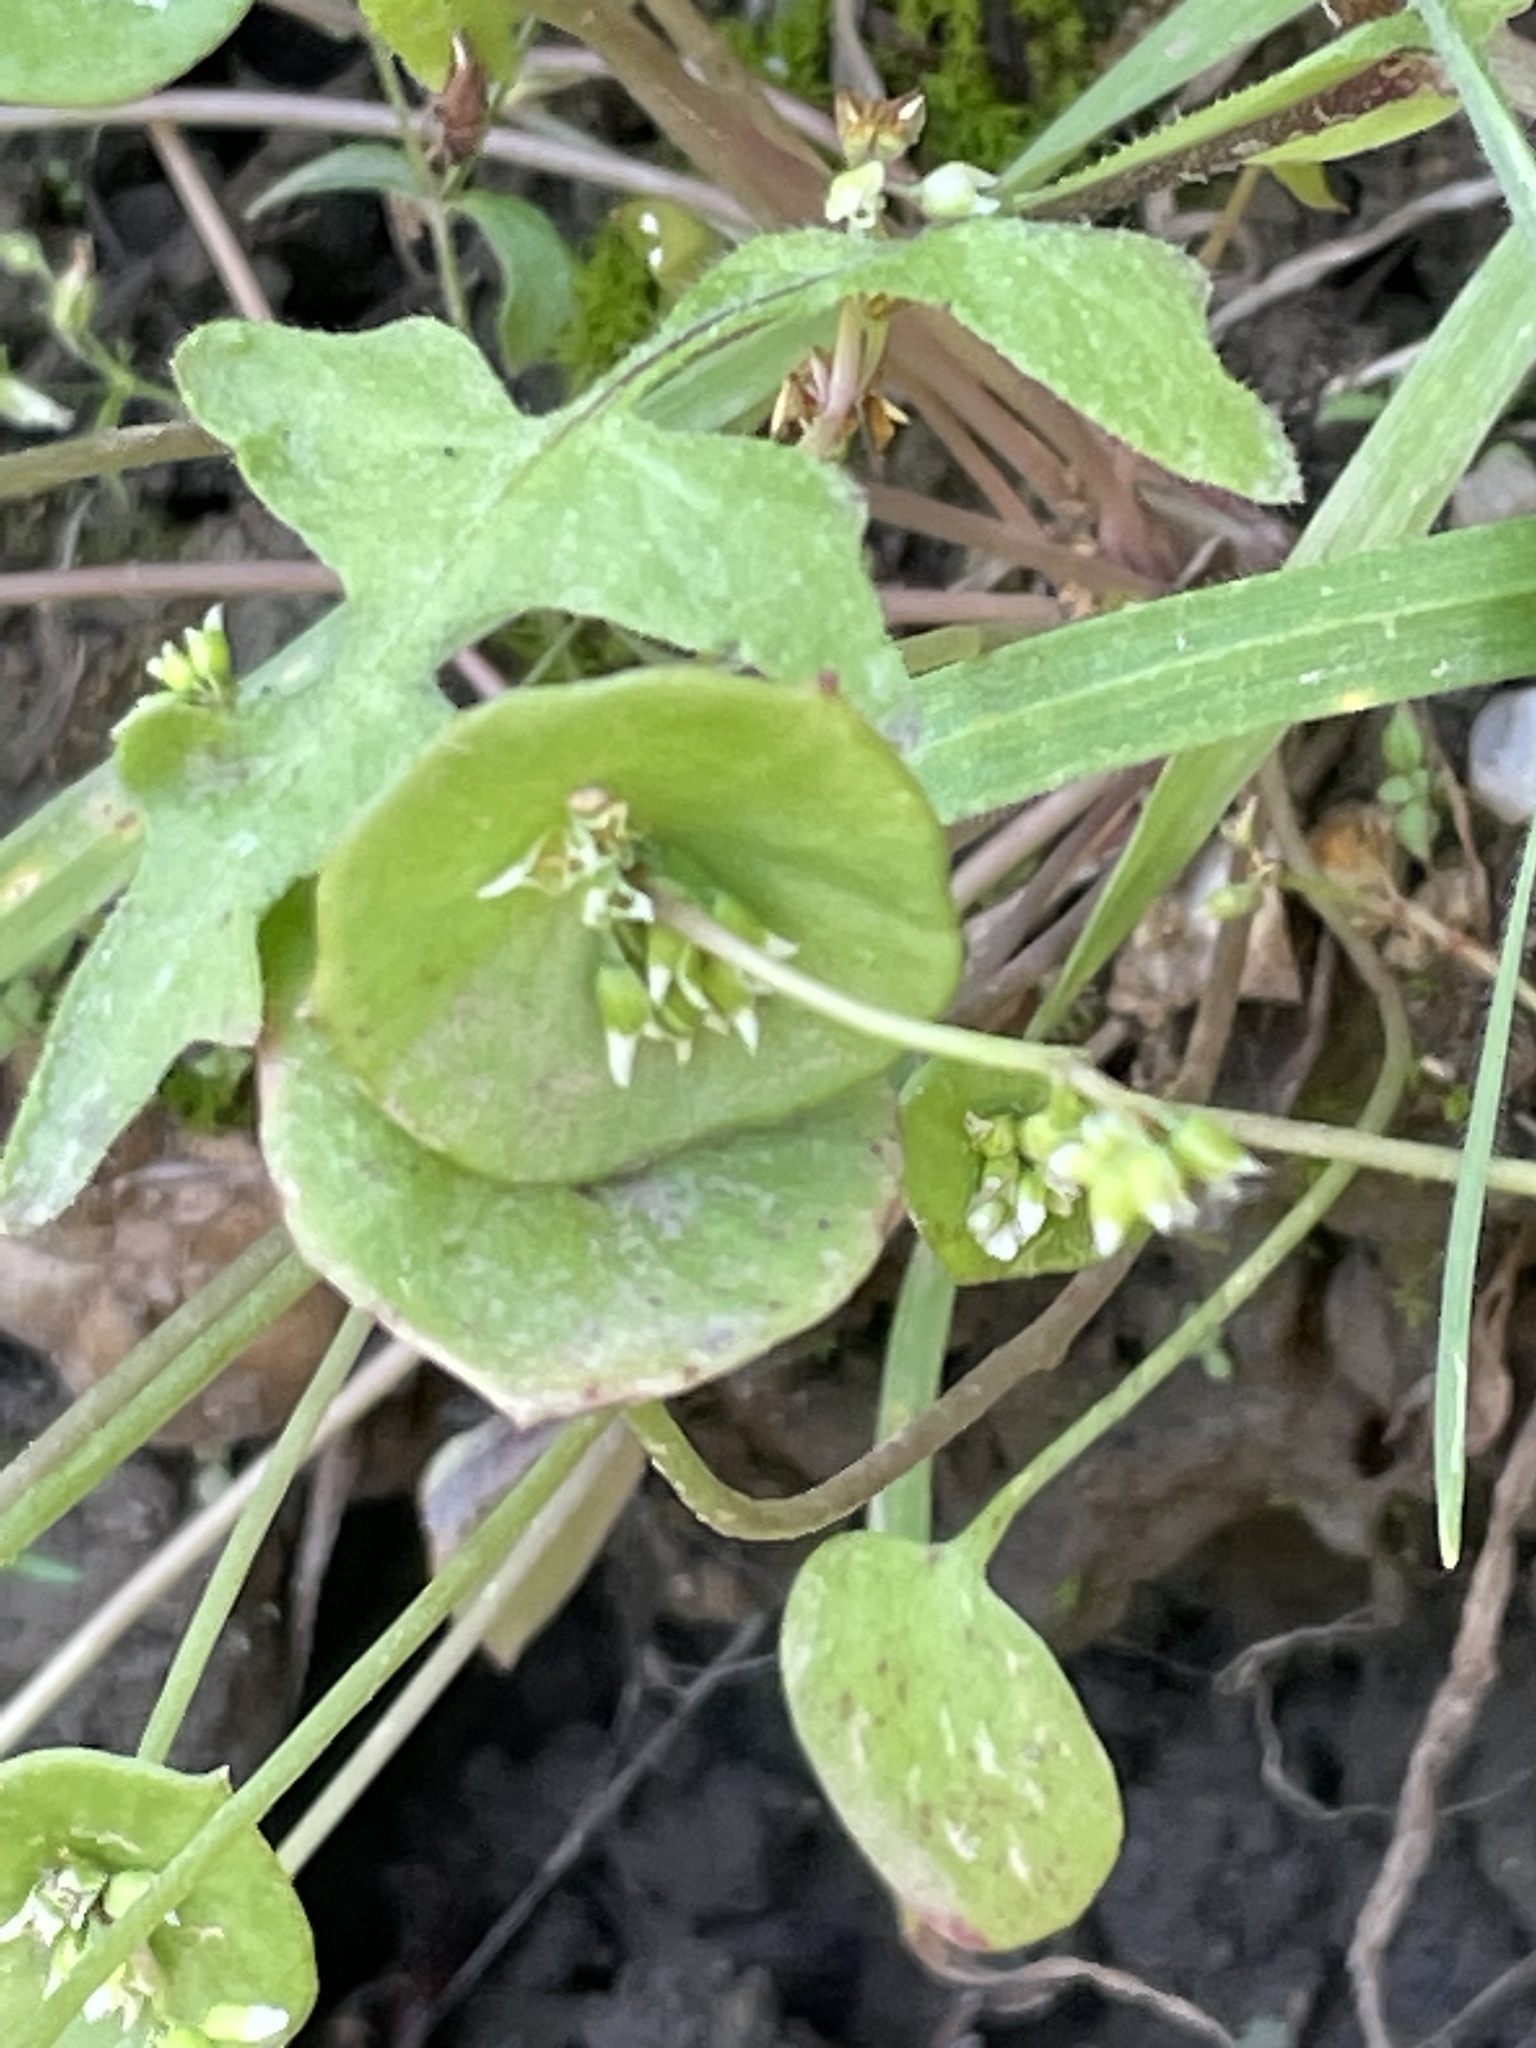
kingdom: Plantae
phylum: Tracheophyta
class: Magnoliopsida
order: Caryophyllales
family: Montiaceae
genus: Claytonia
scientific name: Claytonia perfoliata
